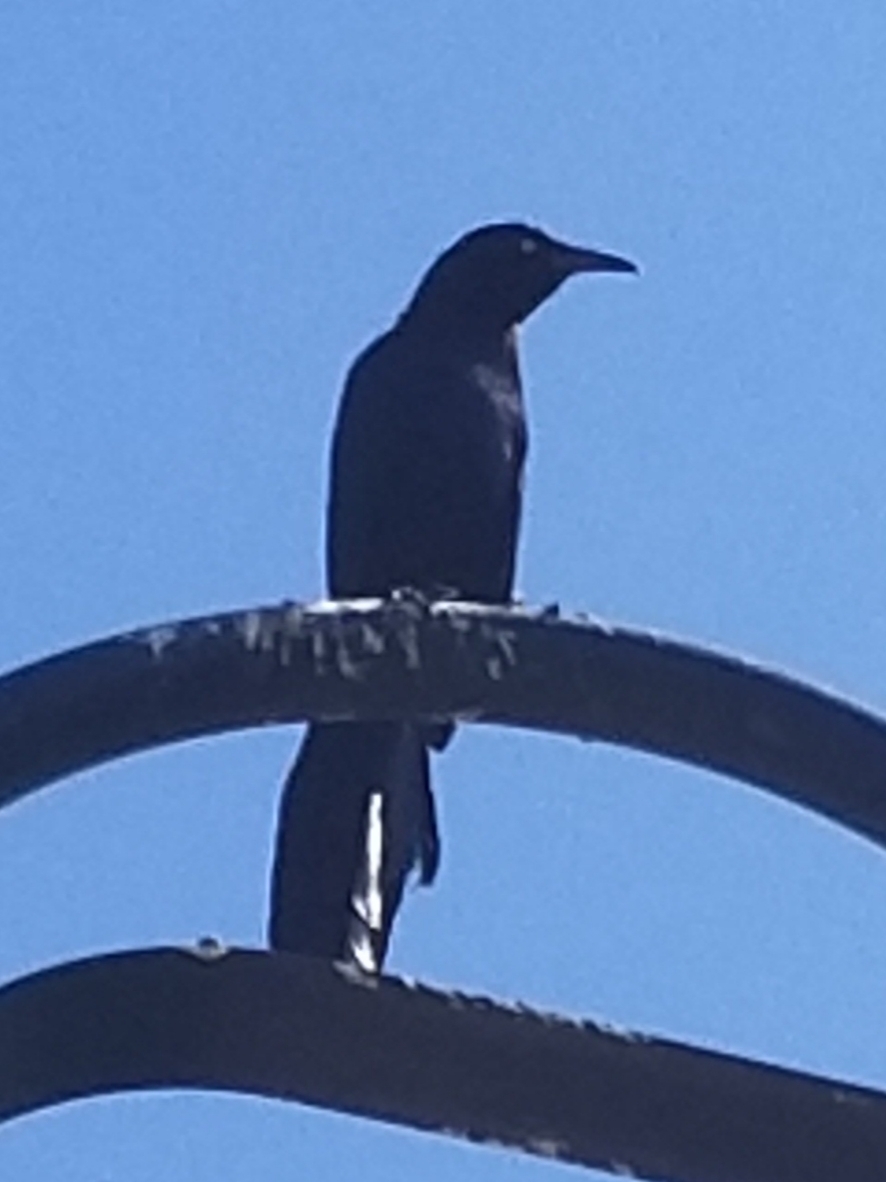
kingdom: Animalia
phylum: Chordata
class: Aves
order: Passeriformes
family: Icteridae
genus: Quiscalus
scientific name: Quiscalus mexicanus
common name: Great-tailed grackle
